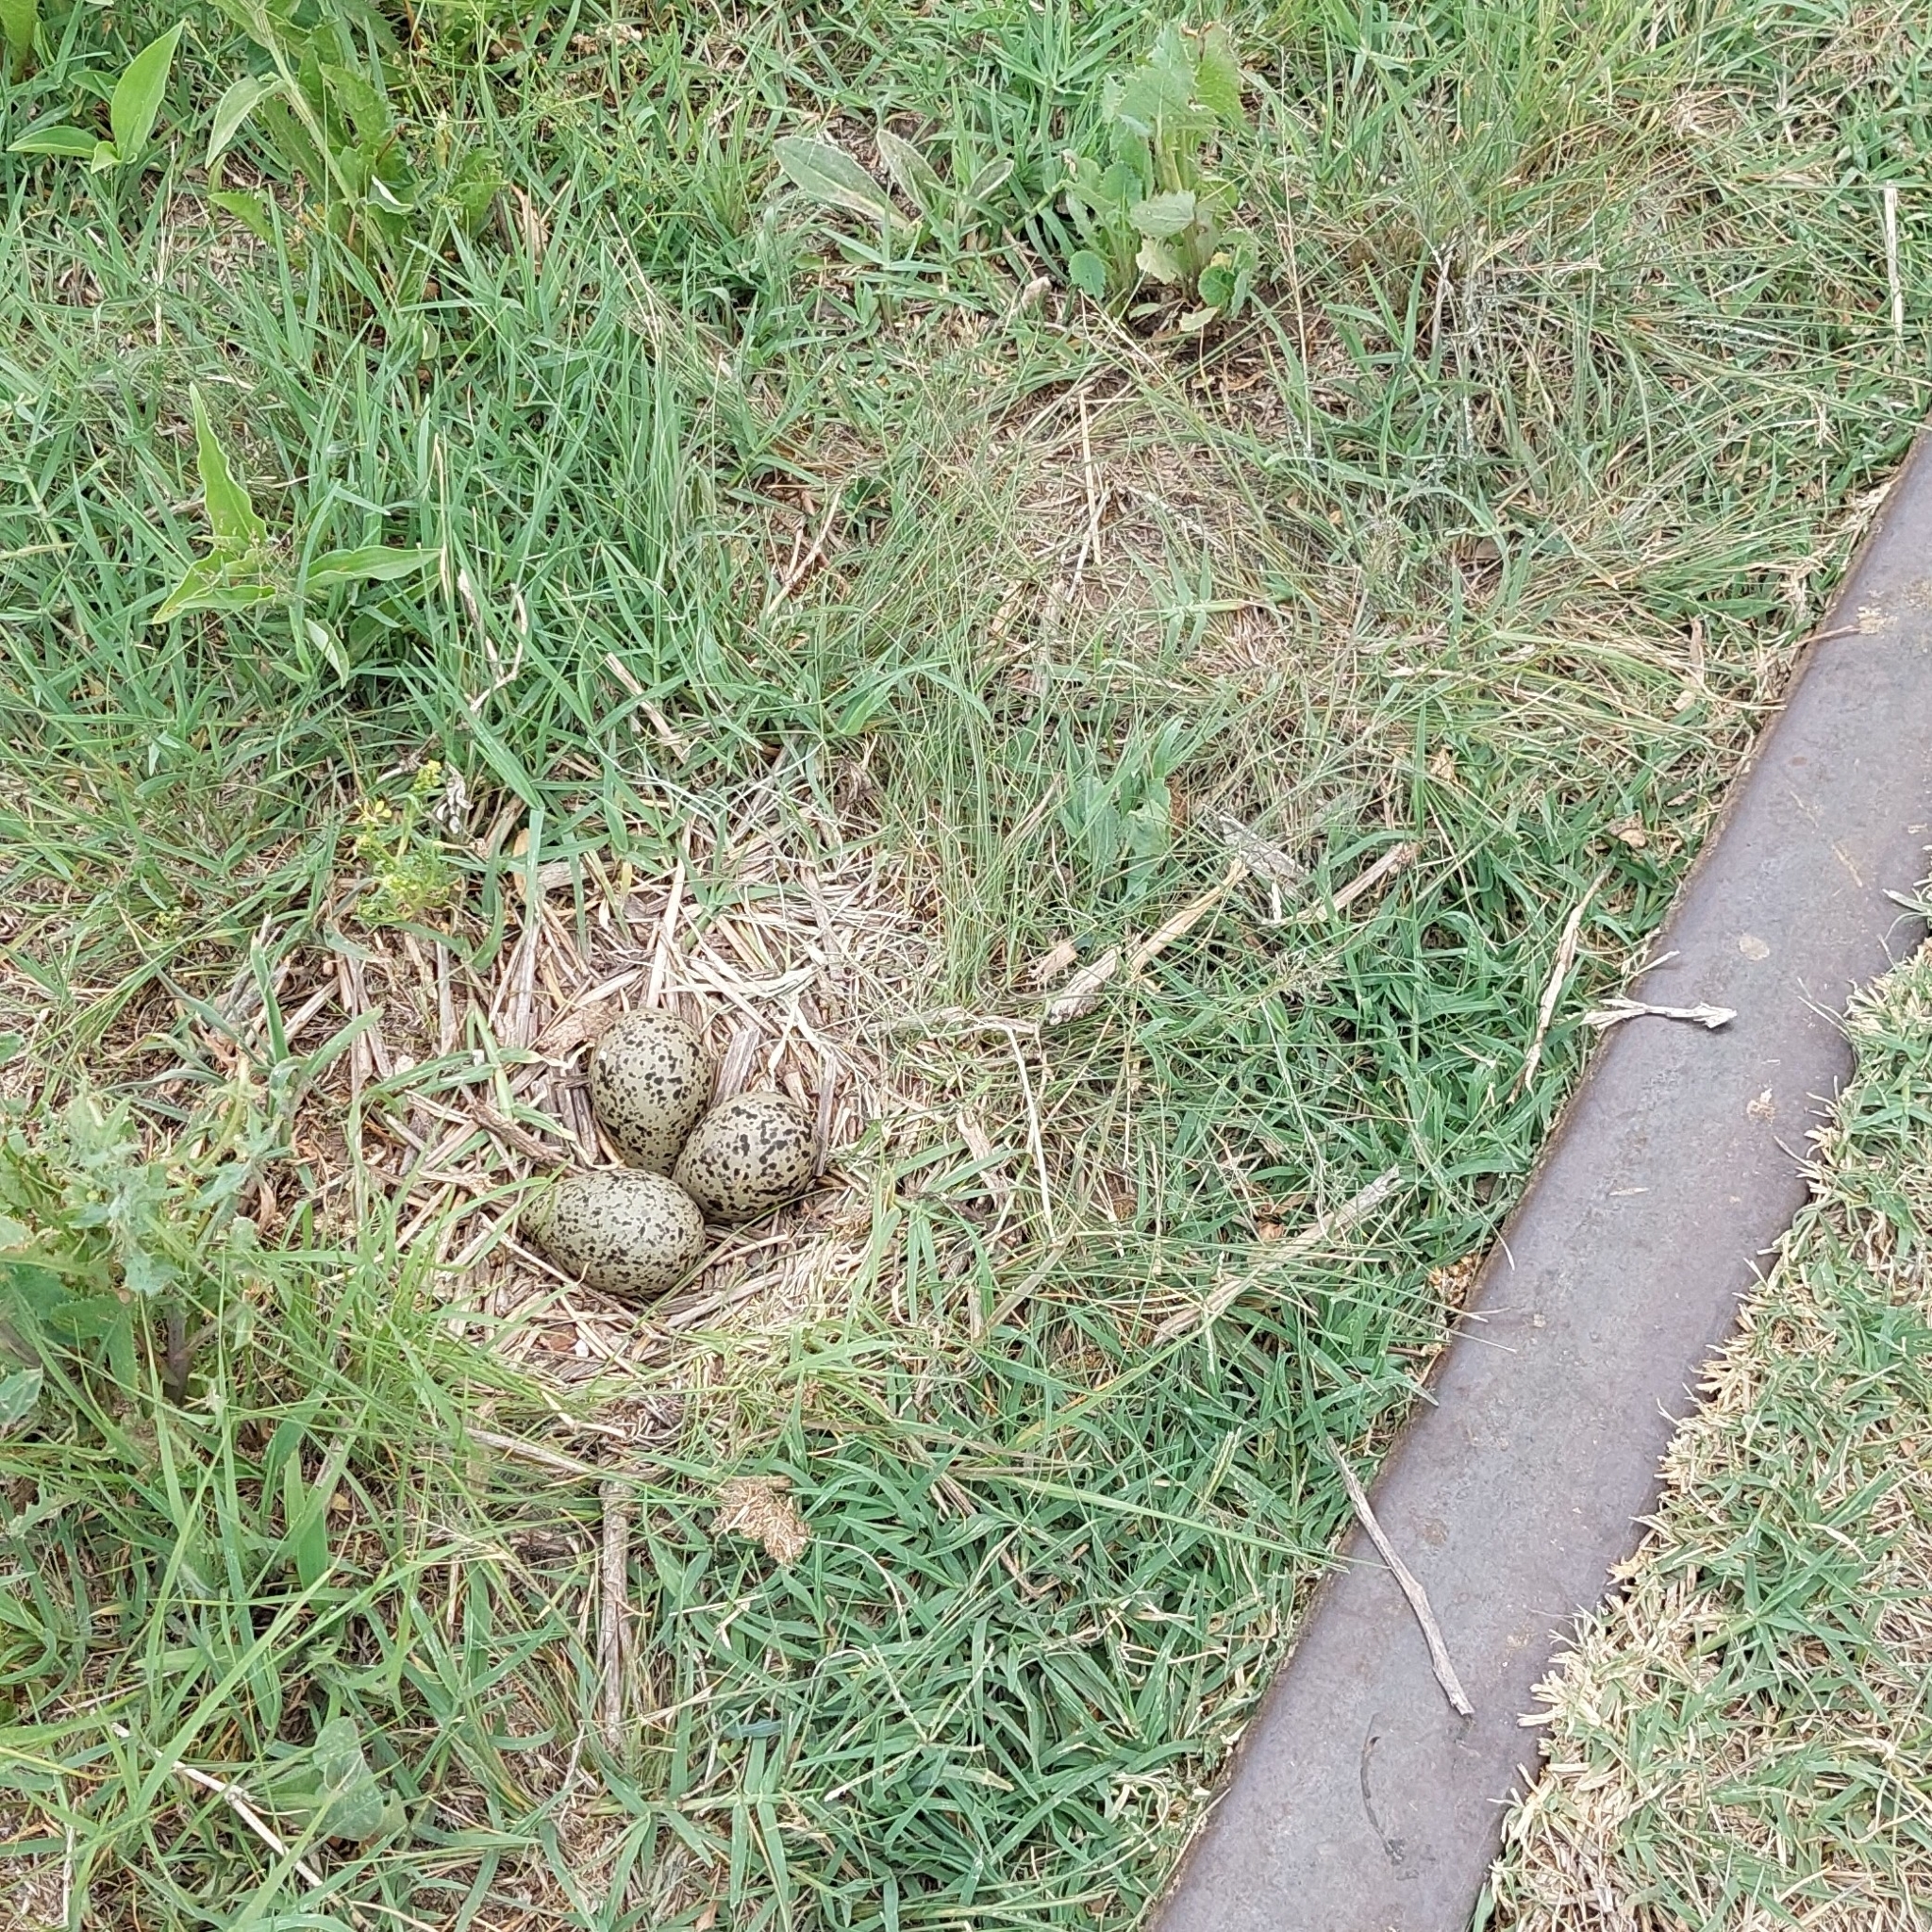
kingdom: Animalia
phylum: Chordata
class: Aves
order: Charadriiformes
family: Charadriidae
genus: Vanellus
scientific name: Vanellus chilensis
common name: Southern lapwing
